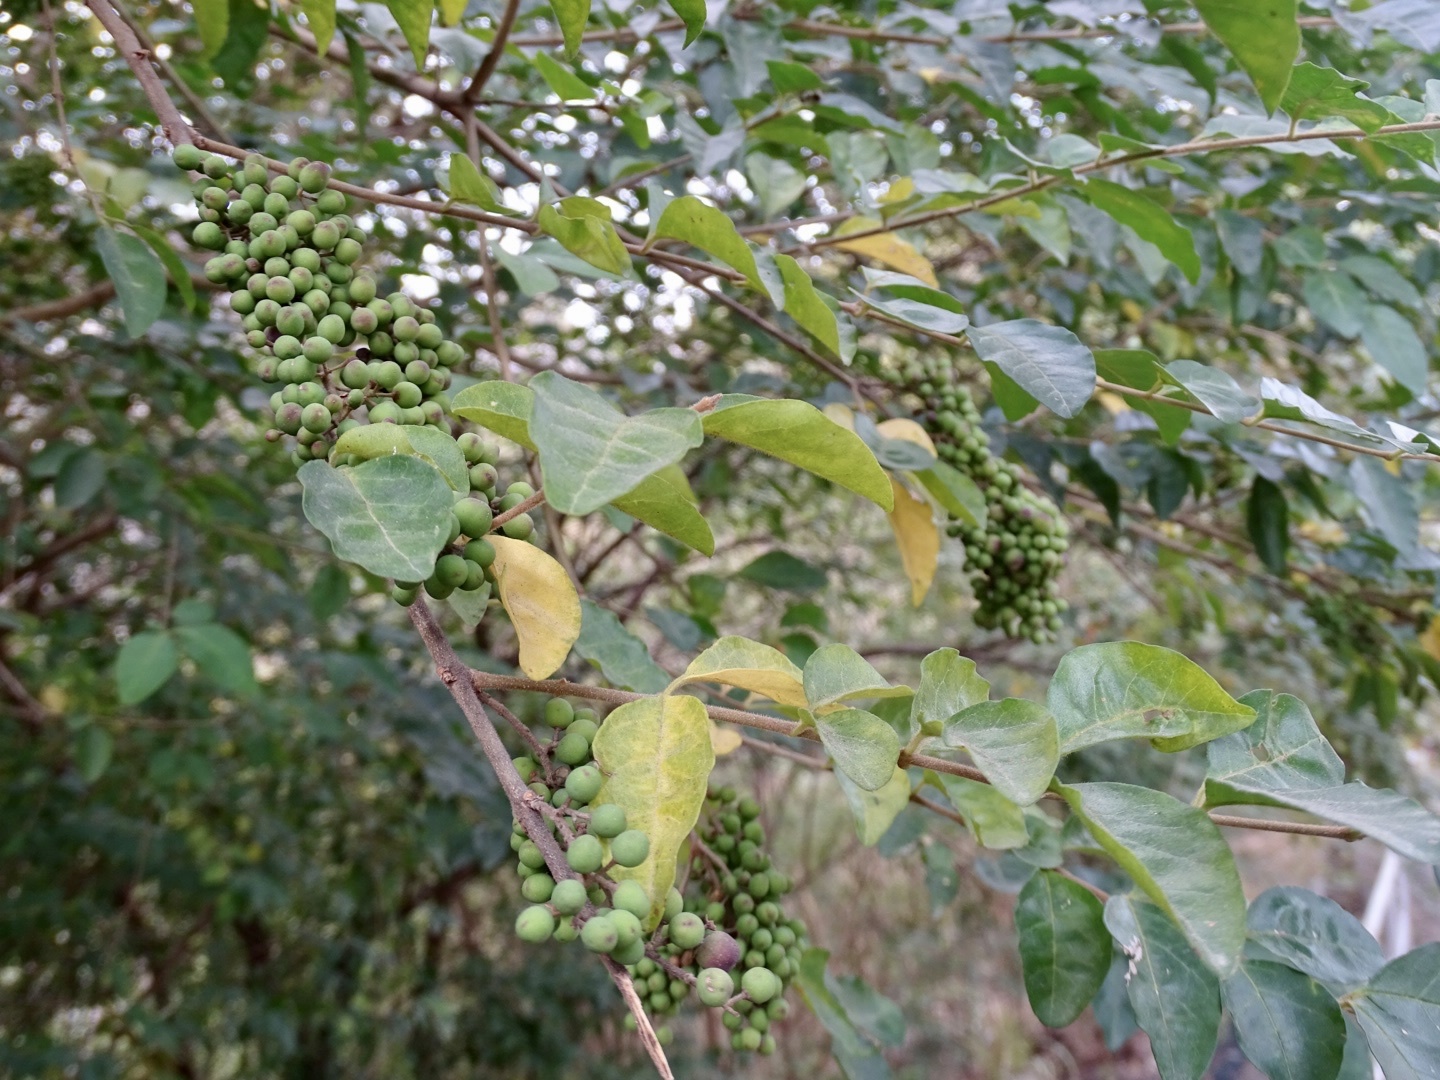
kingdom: Plantae
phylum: Tracheophyta
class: Magnoliopsida
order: Lamiales
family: Oleaceae
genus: Ligustrum
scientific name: Ligustrum sinense
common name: Chinese privet
